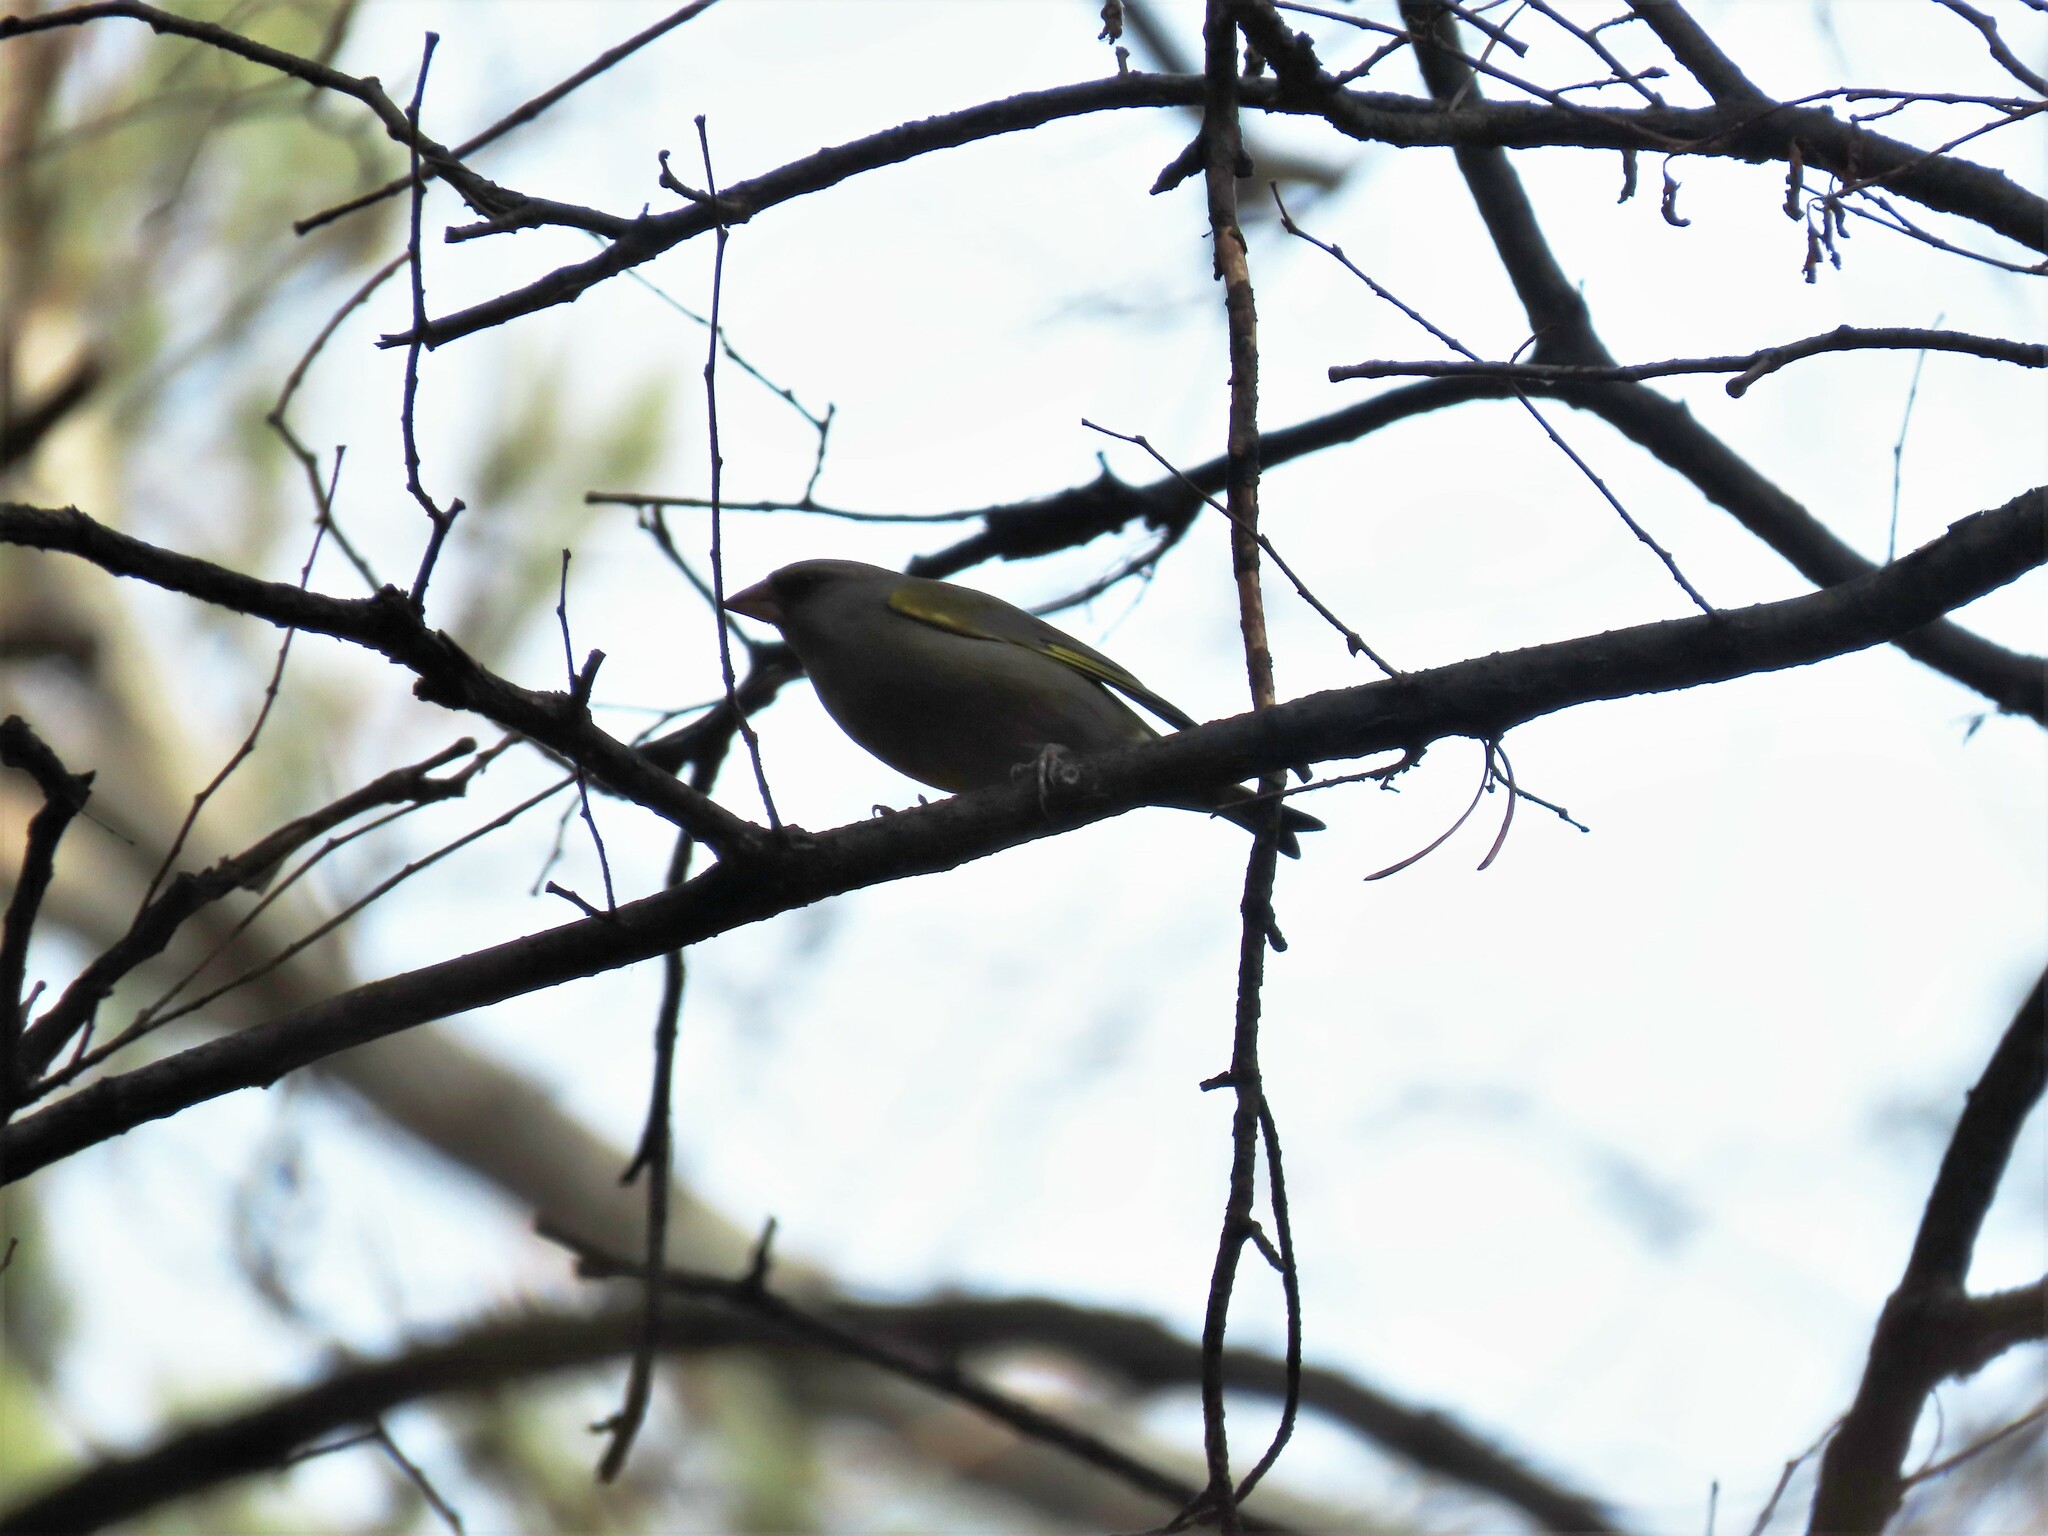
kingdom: Plantae
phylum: Tracheophyta
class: Liliopsida
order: Poales
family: Poaceae
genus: Chloris
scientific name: Chloris chloris
